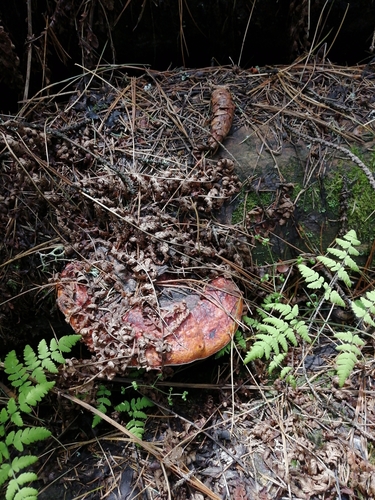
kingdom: Fungi
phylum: Basidiomycota
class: Agaricomycetes
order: Polyporales
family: Fomitopsidaceae
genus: Fomitopsis
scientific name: Fomitopsis pinicola
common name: Red-belted bracket
